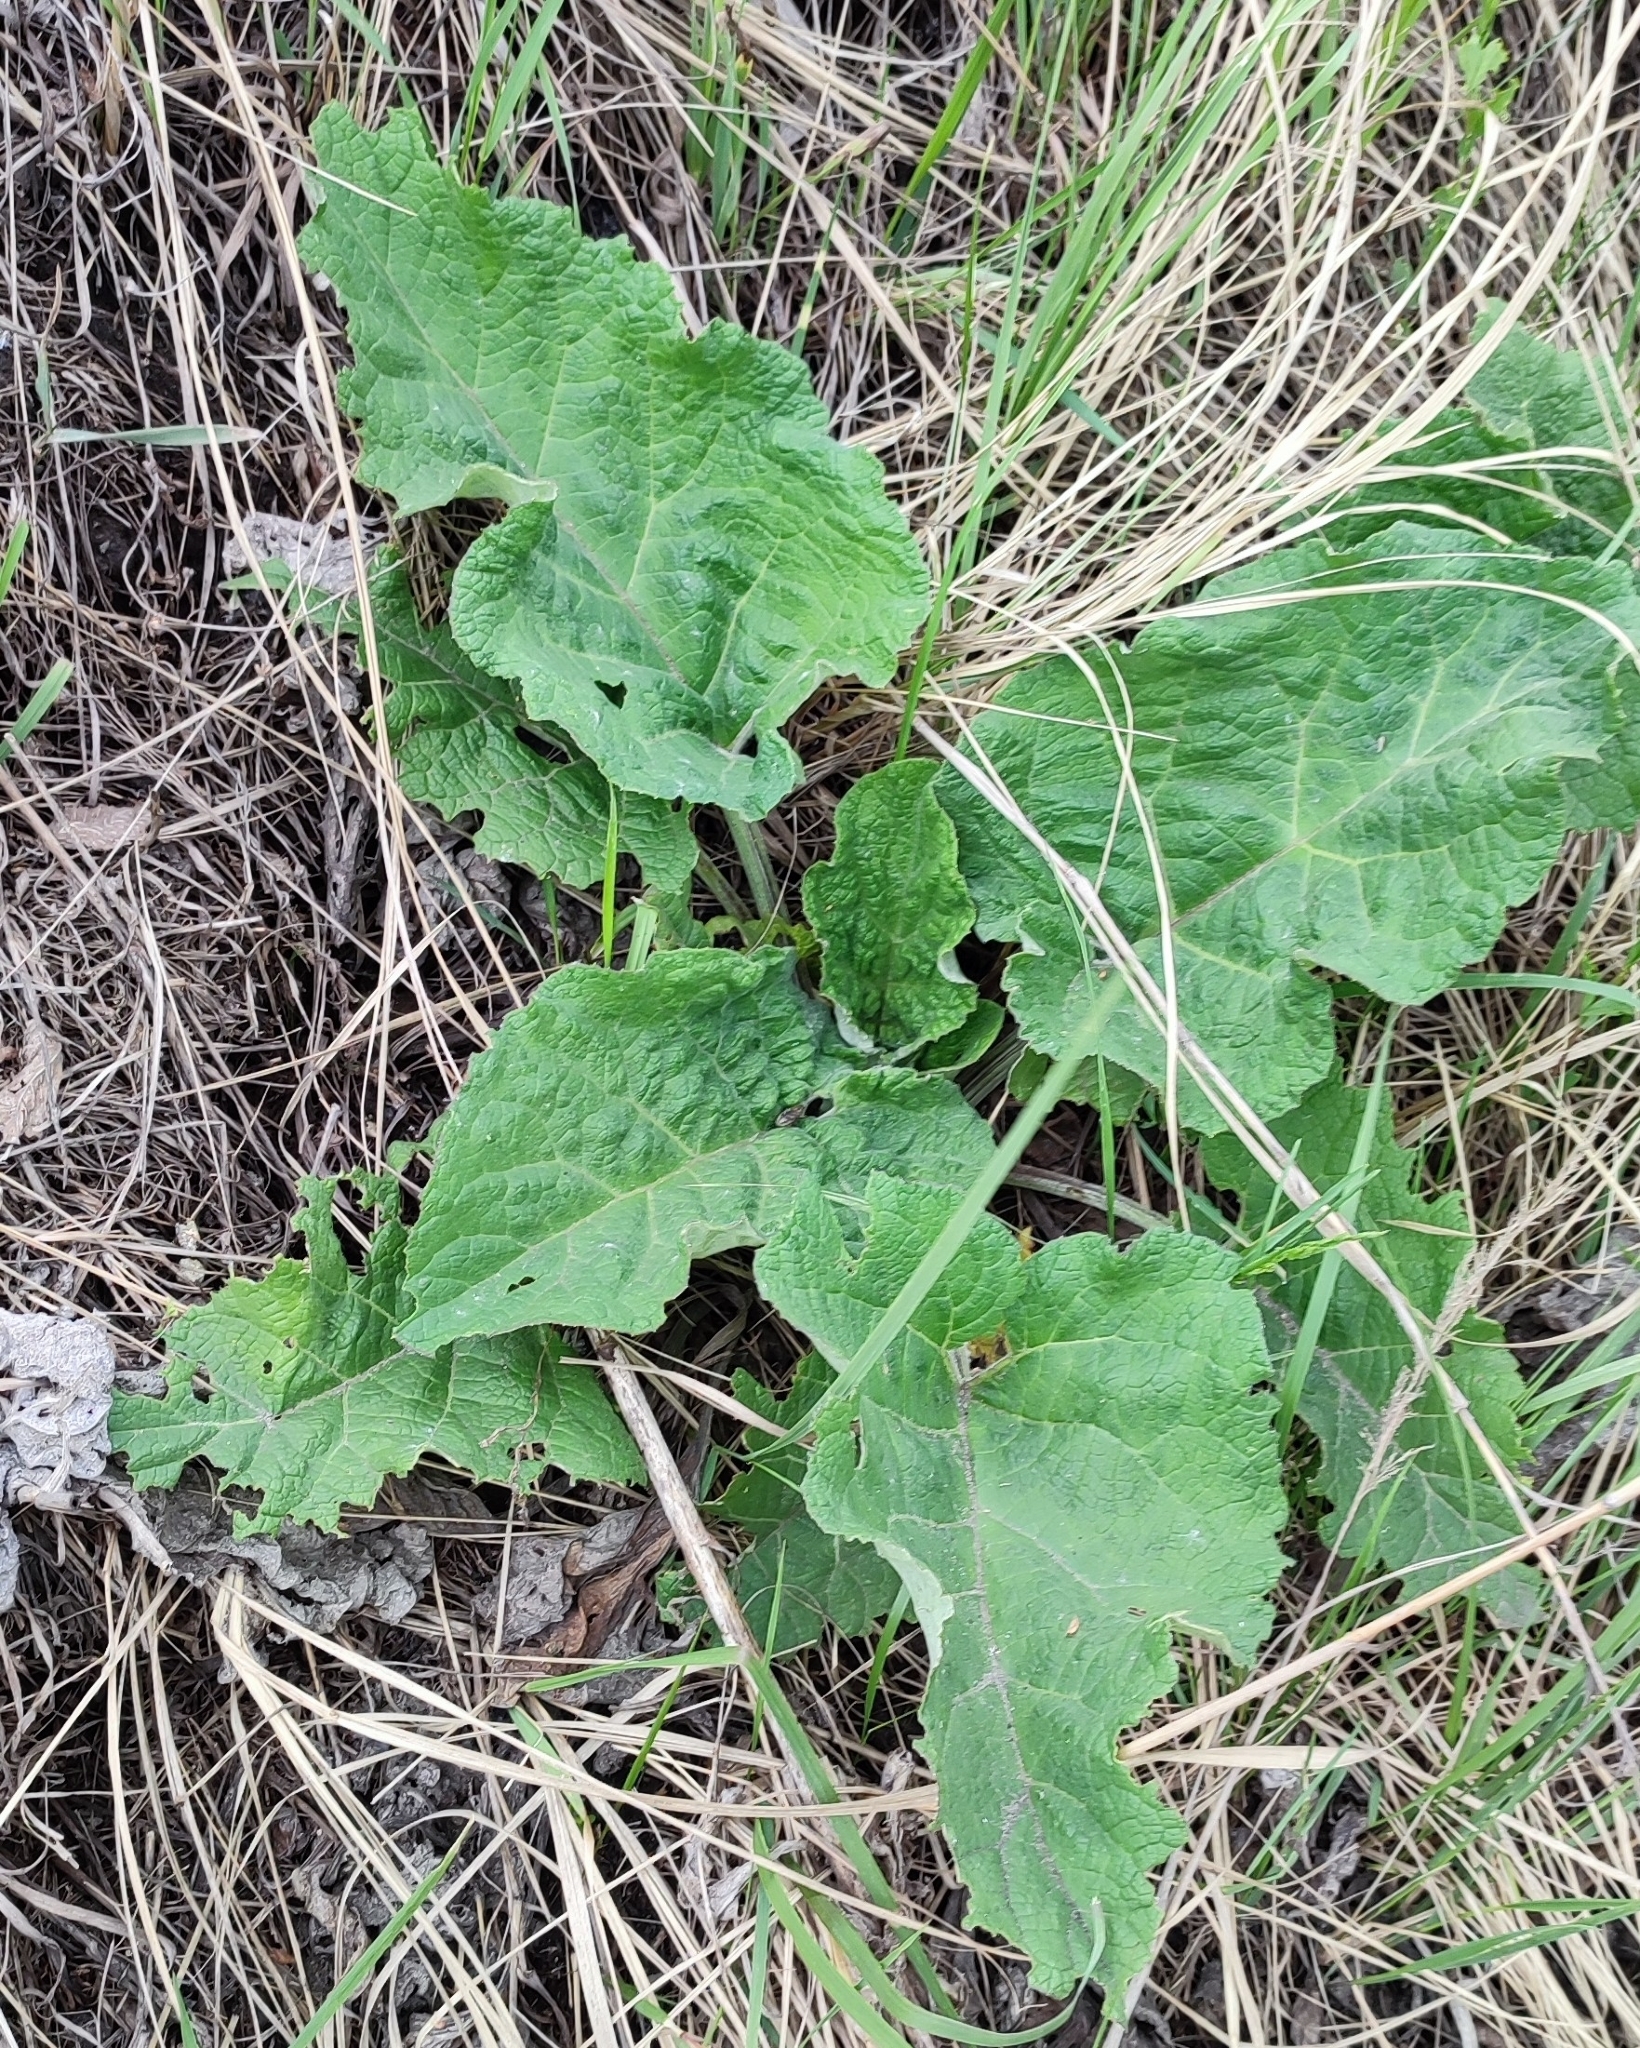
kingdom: Plantae
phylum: Tracheophyta
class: Magnoliopsida
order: Asterales
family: Asteraceae
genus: Arctium
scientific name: Arctium tomentosum
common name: Woolly burdock
